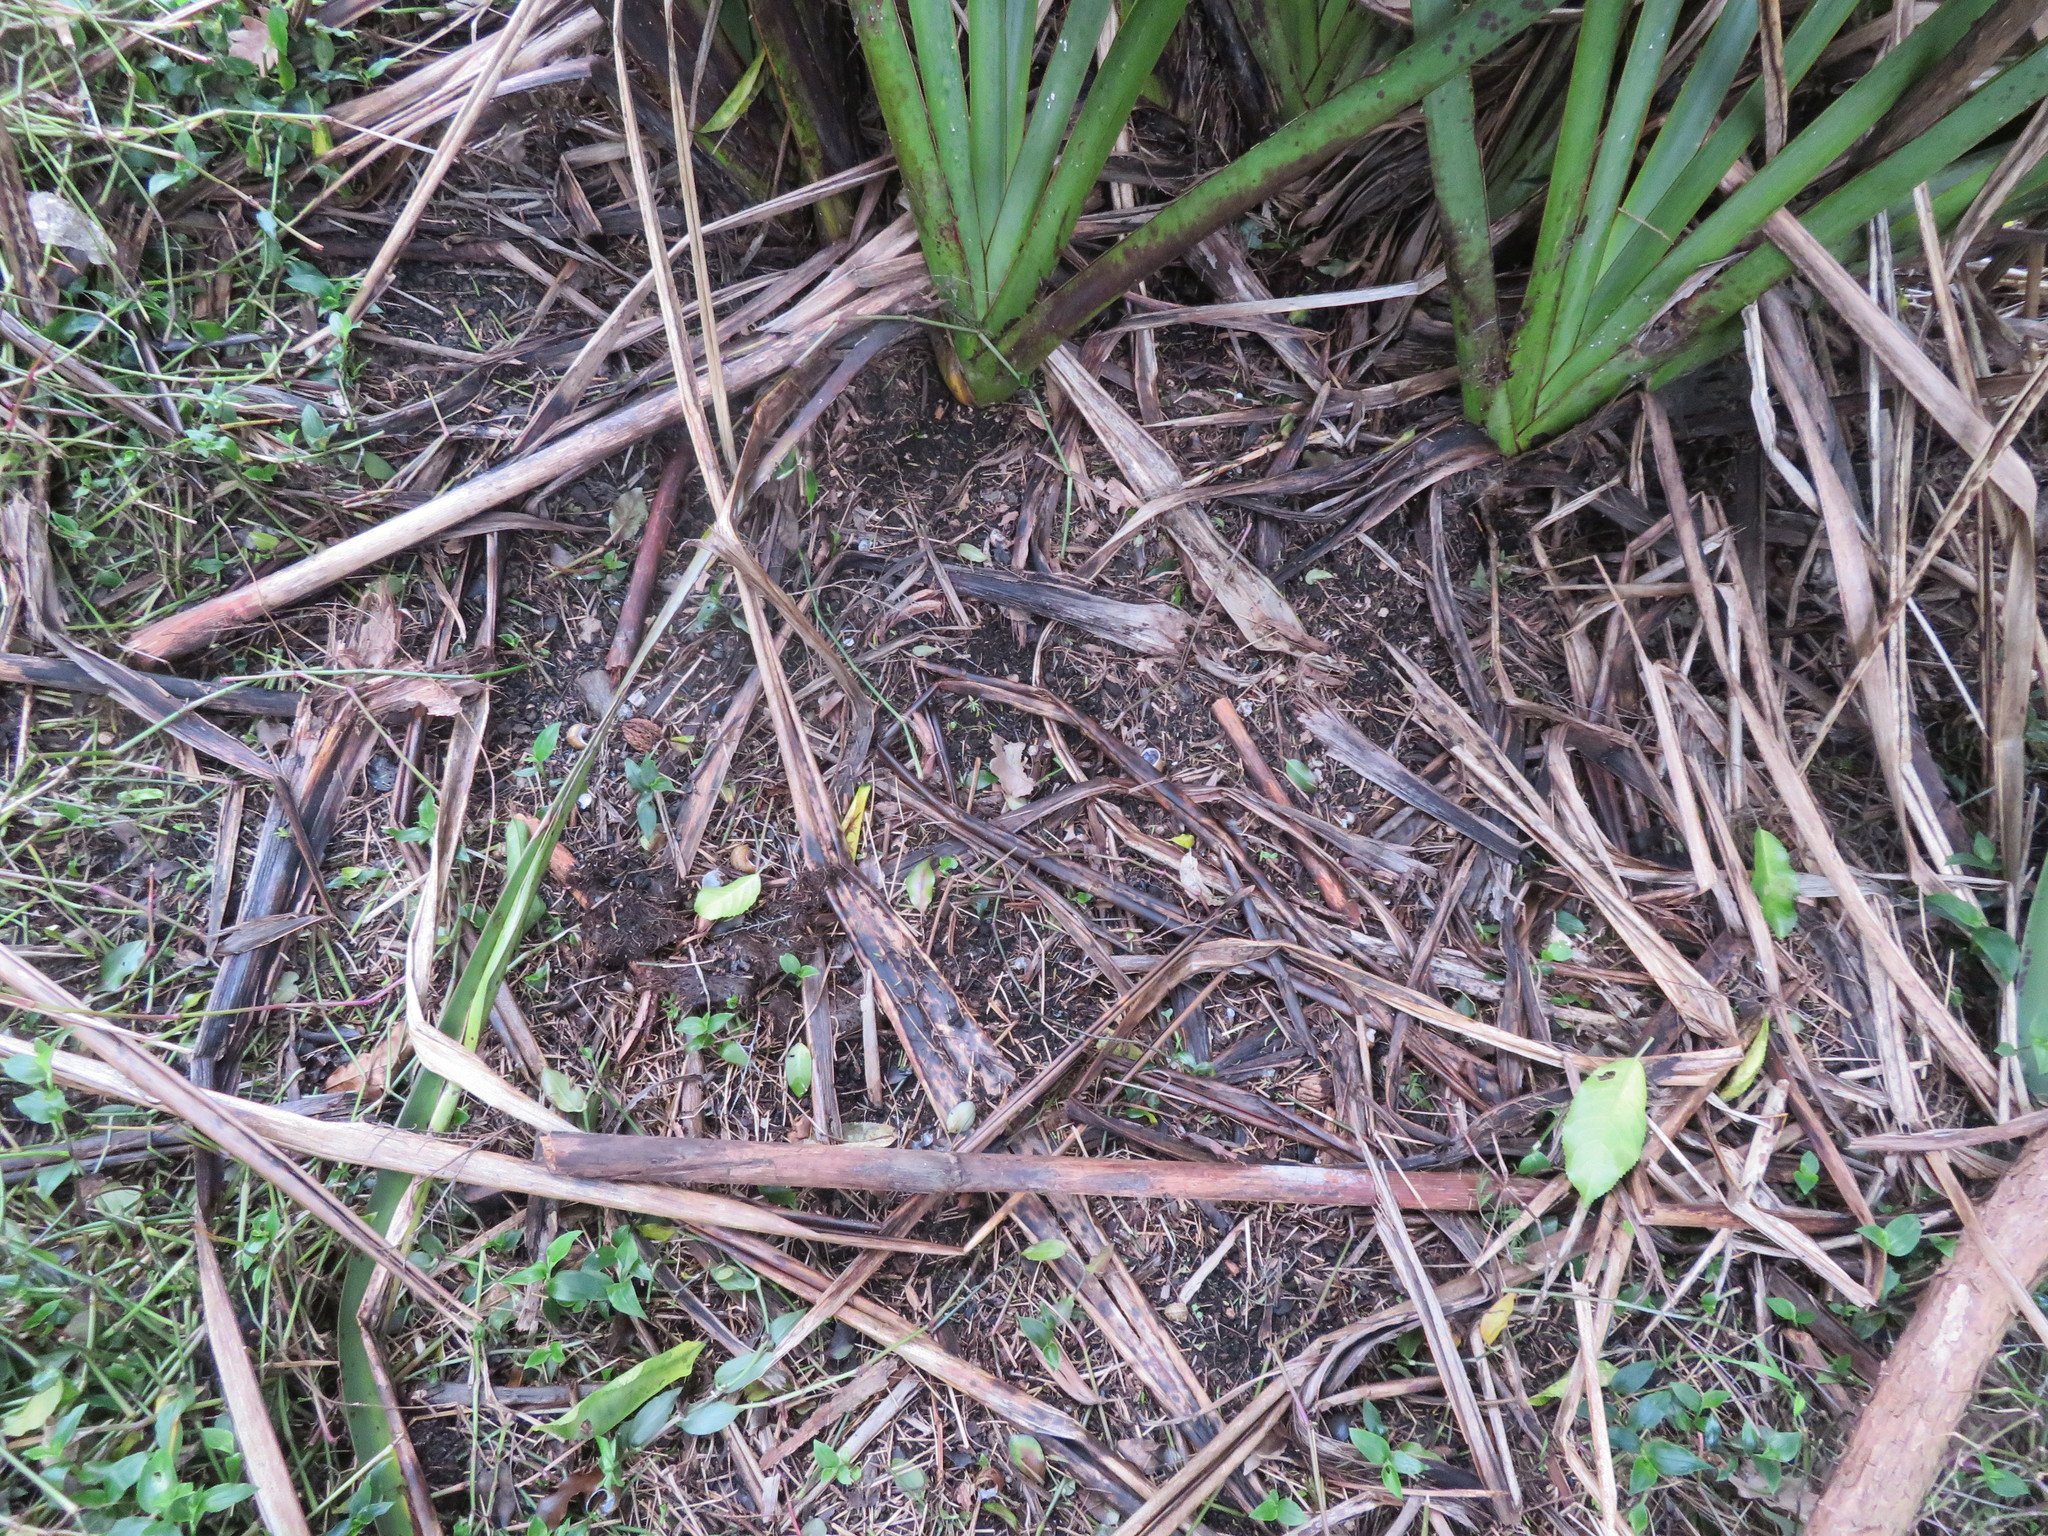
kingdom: Plantae
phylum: Tracheophyta
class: Liliopsida
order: Commelinales
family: Commelinaceae
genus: Tradescantia
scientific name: Tradescantia fluminensis
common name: Wandering-jew
